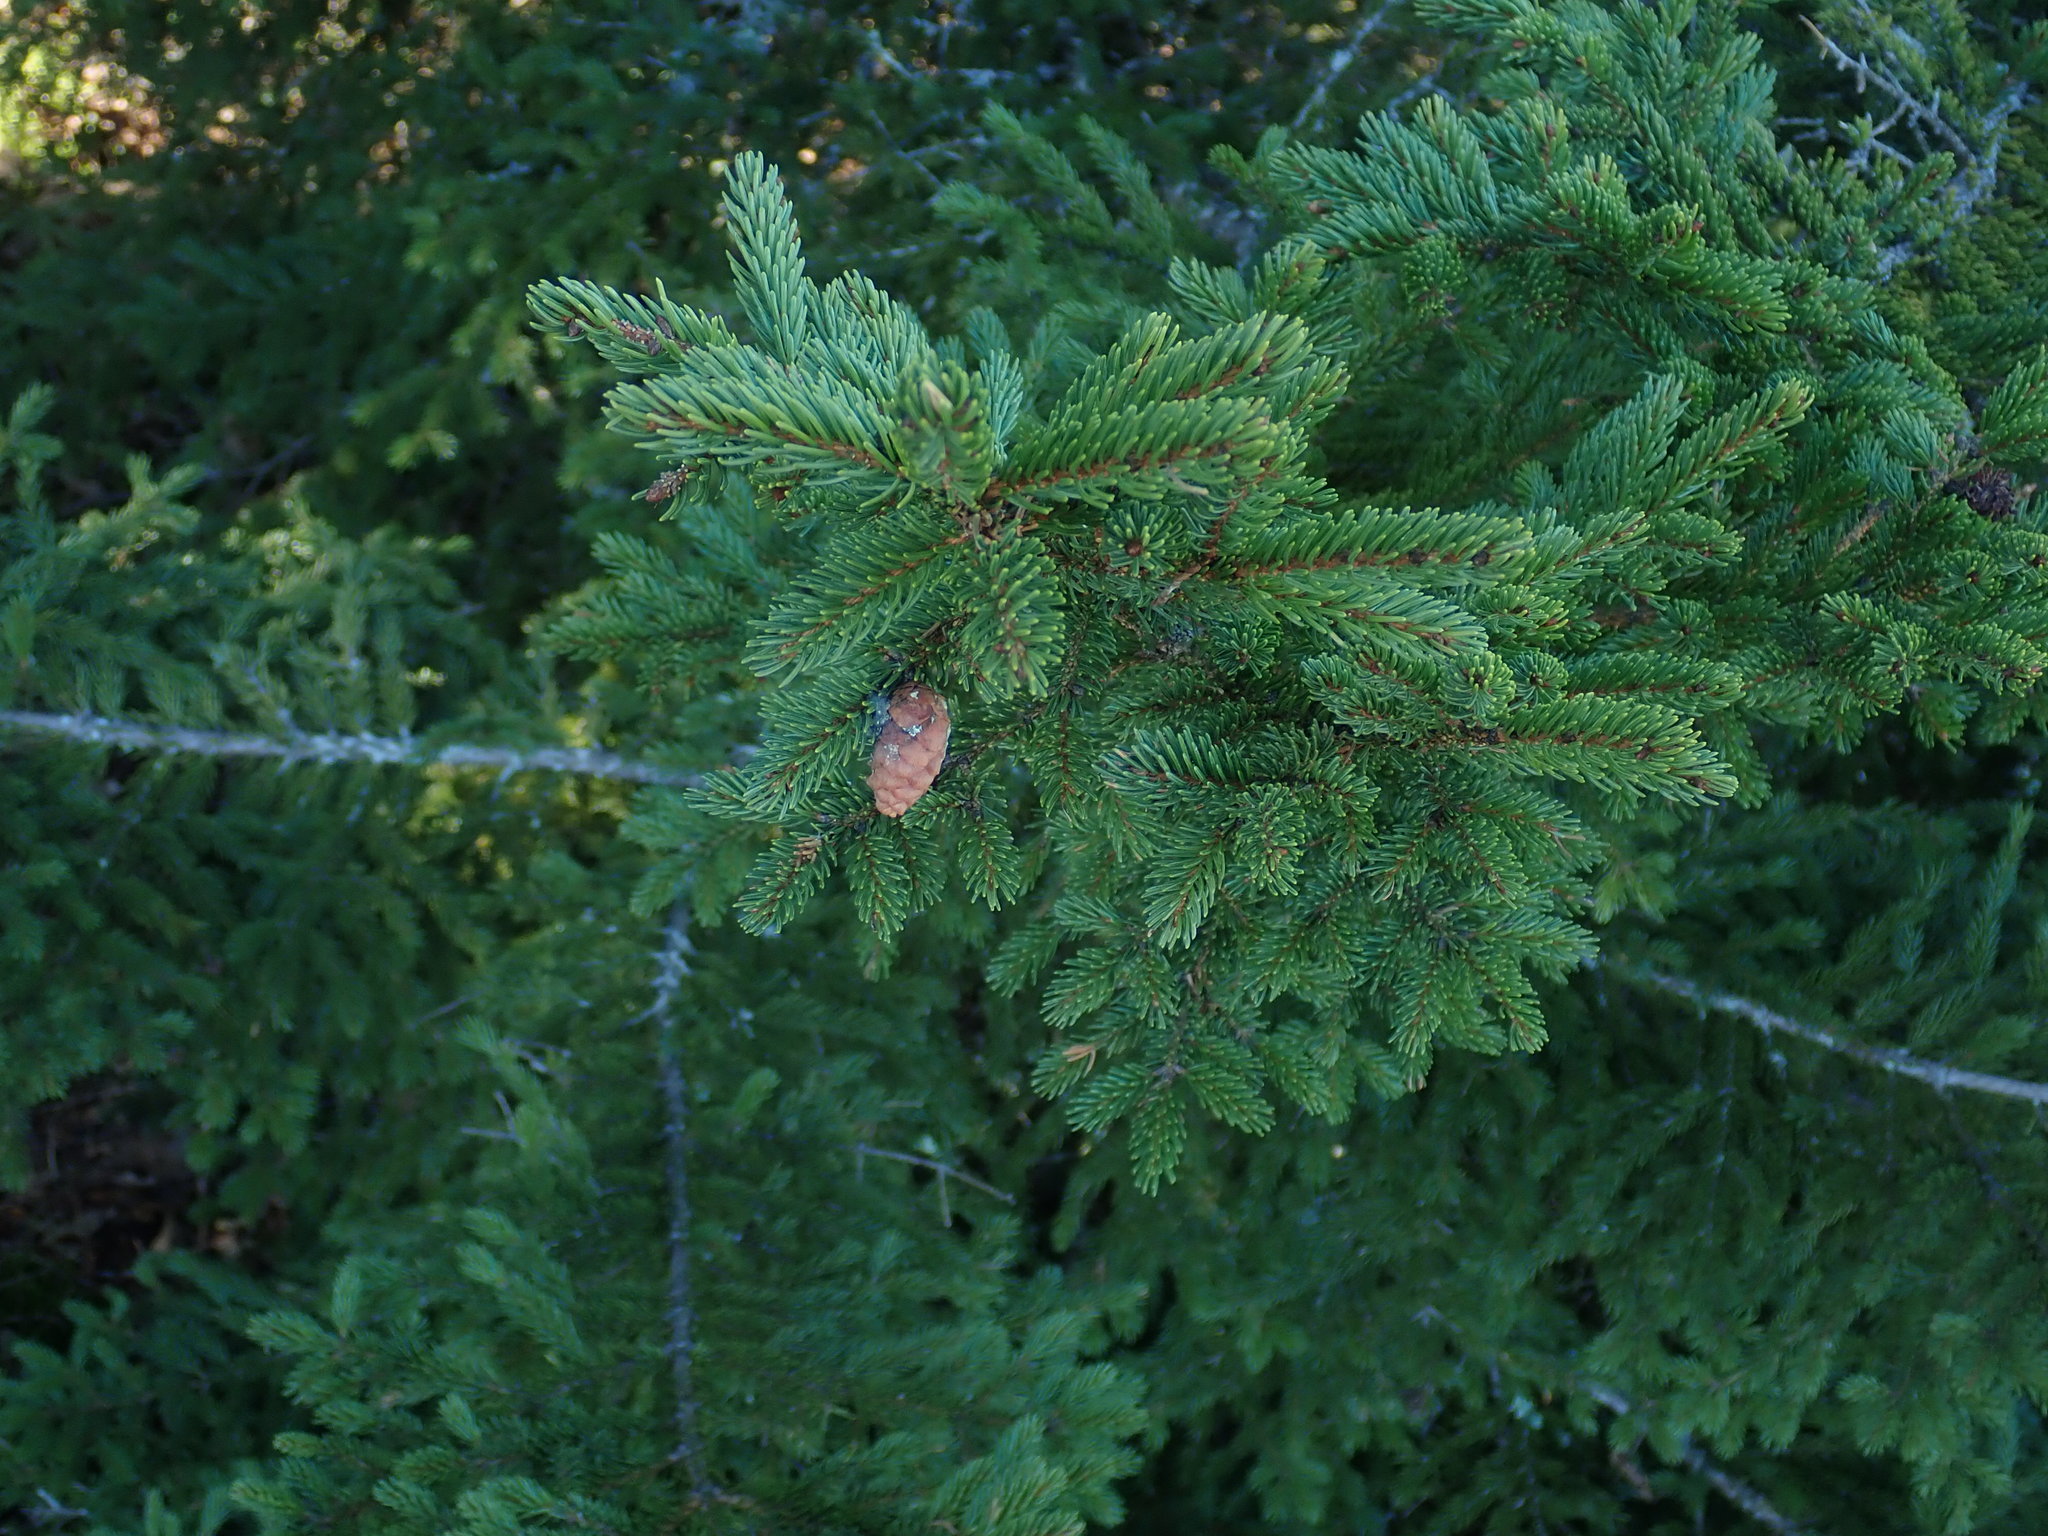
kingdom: Plantae
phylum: Tracheophyta
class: Pinopsida
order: Pinales
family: Pinaceae
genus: Picea
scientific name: Picea rubens
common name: Red spruce
